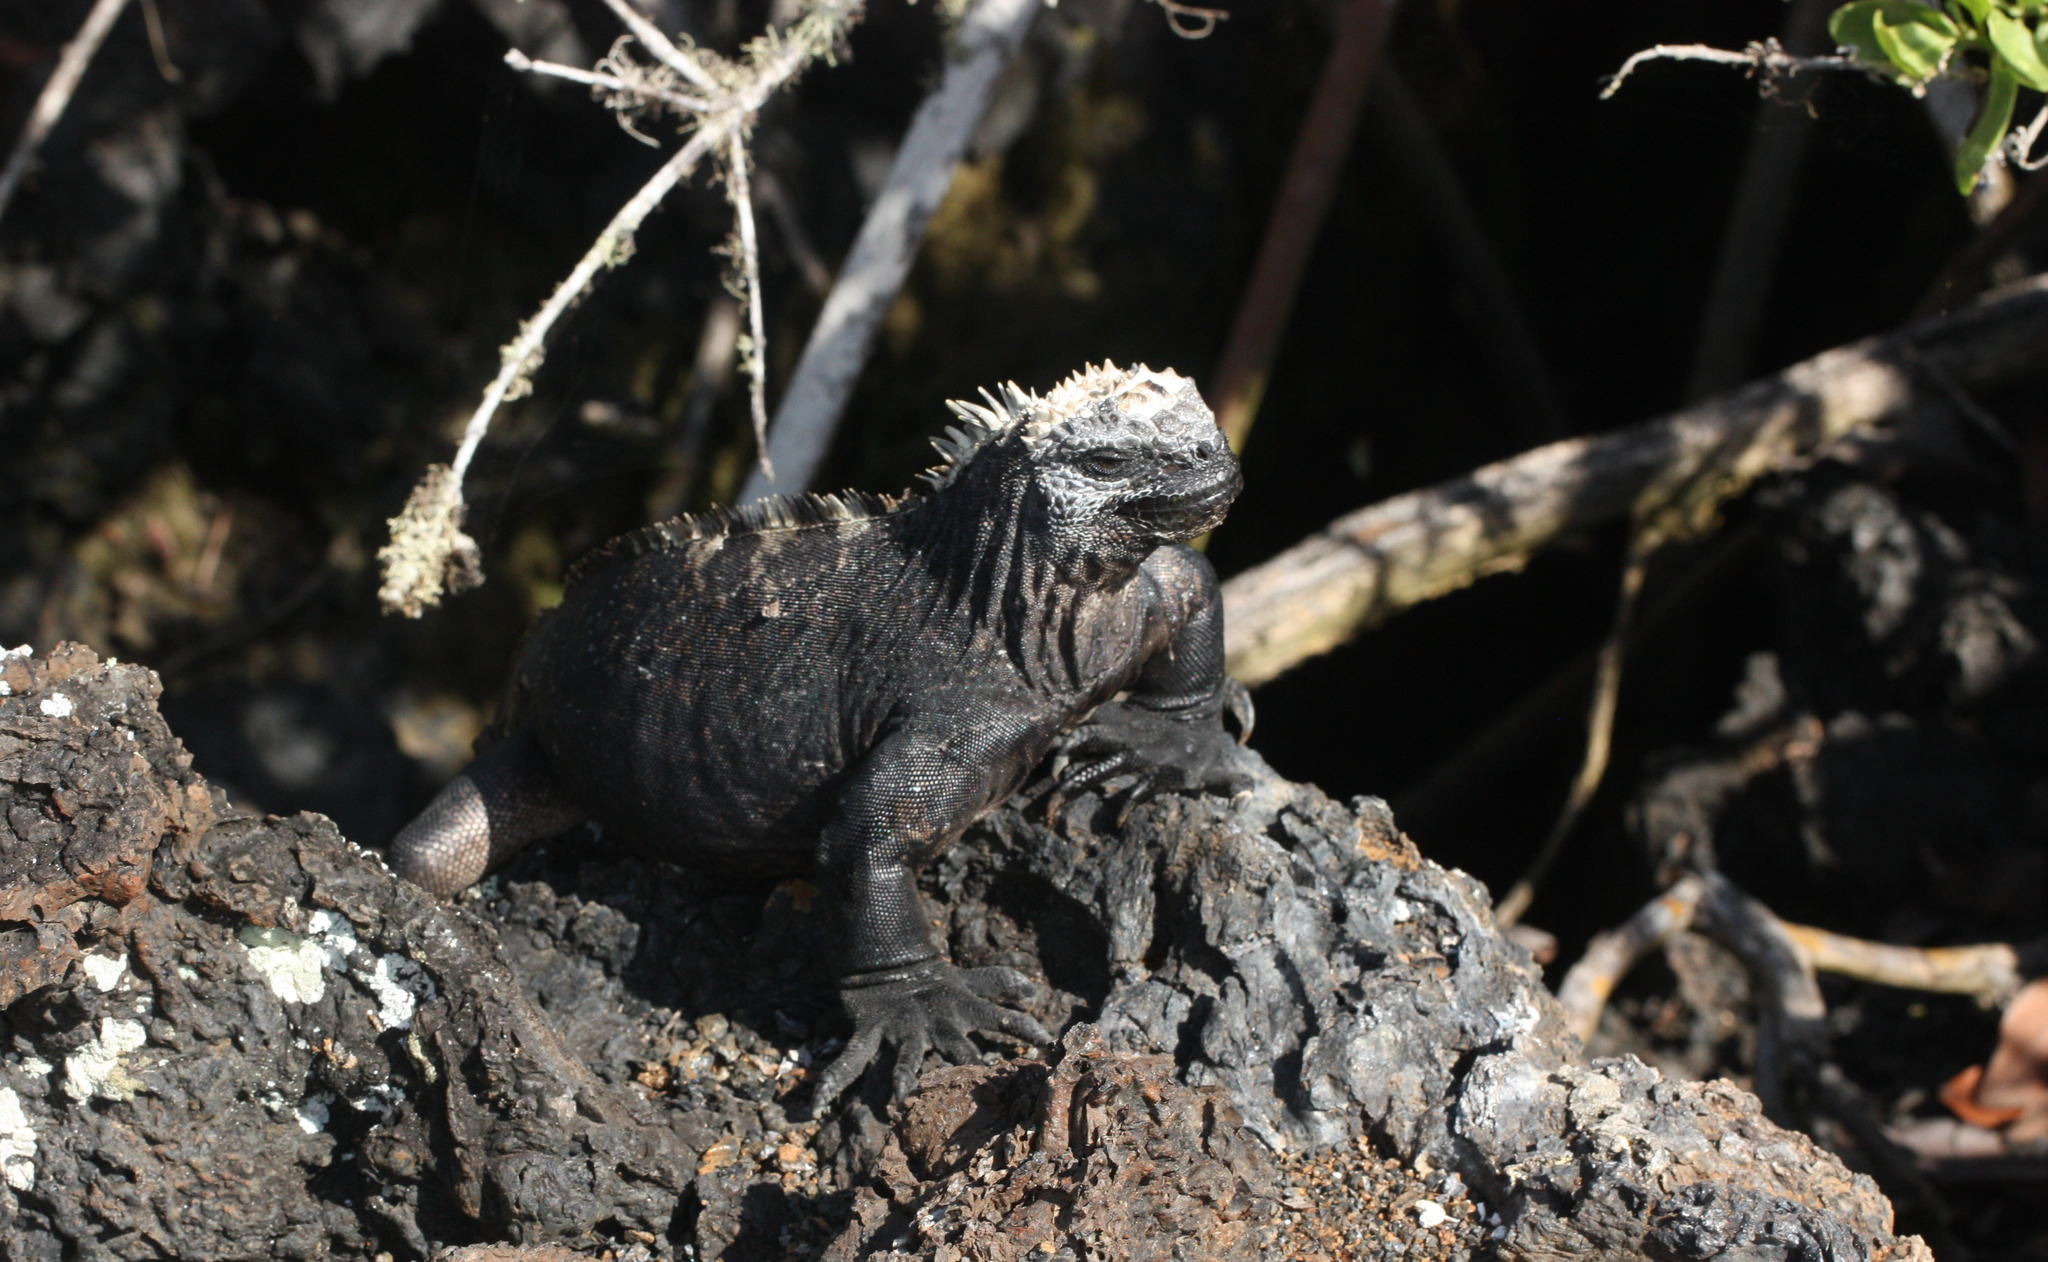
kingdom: Animalia
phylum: Chordata
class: Squamata
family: Iguanidae
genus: Amblyrhynchus
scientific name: Amblyrhynchus cristatus
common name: Marine iguana
